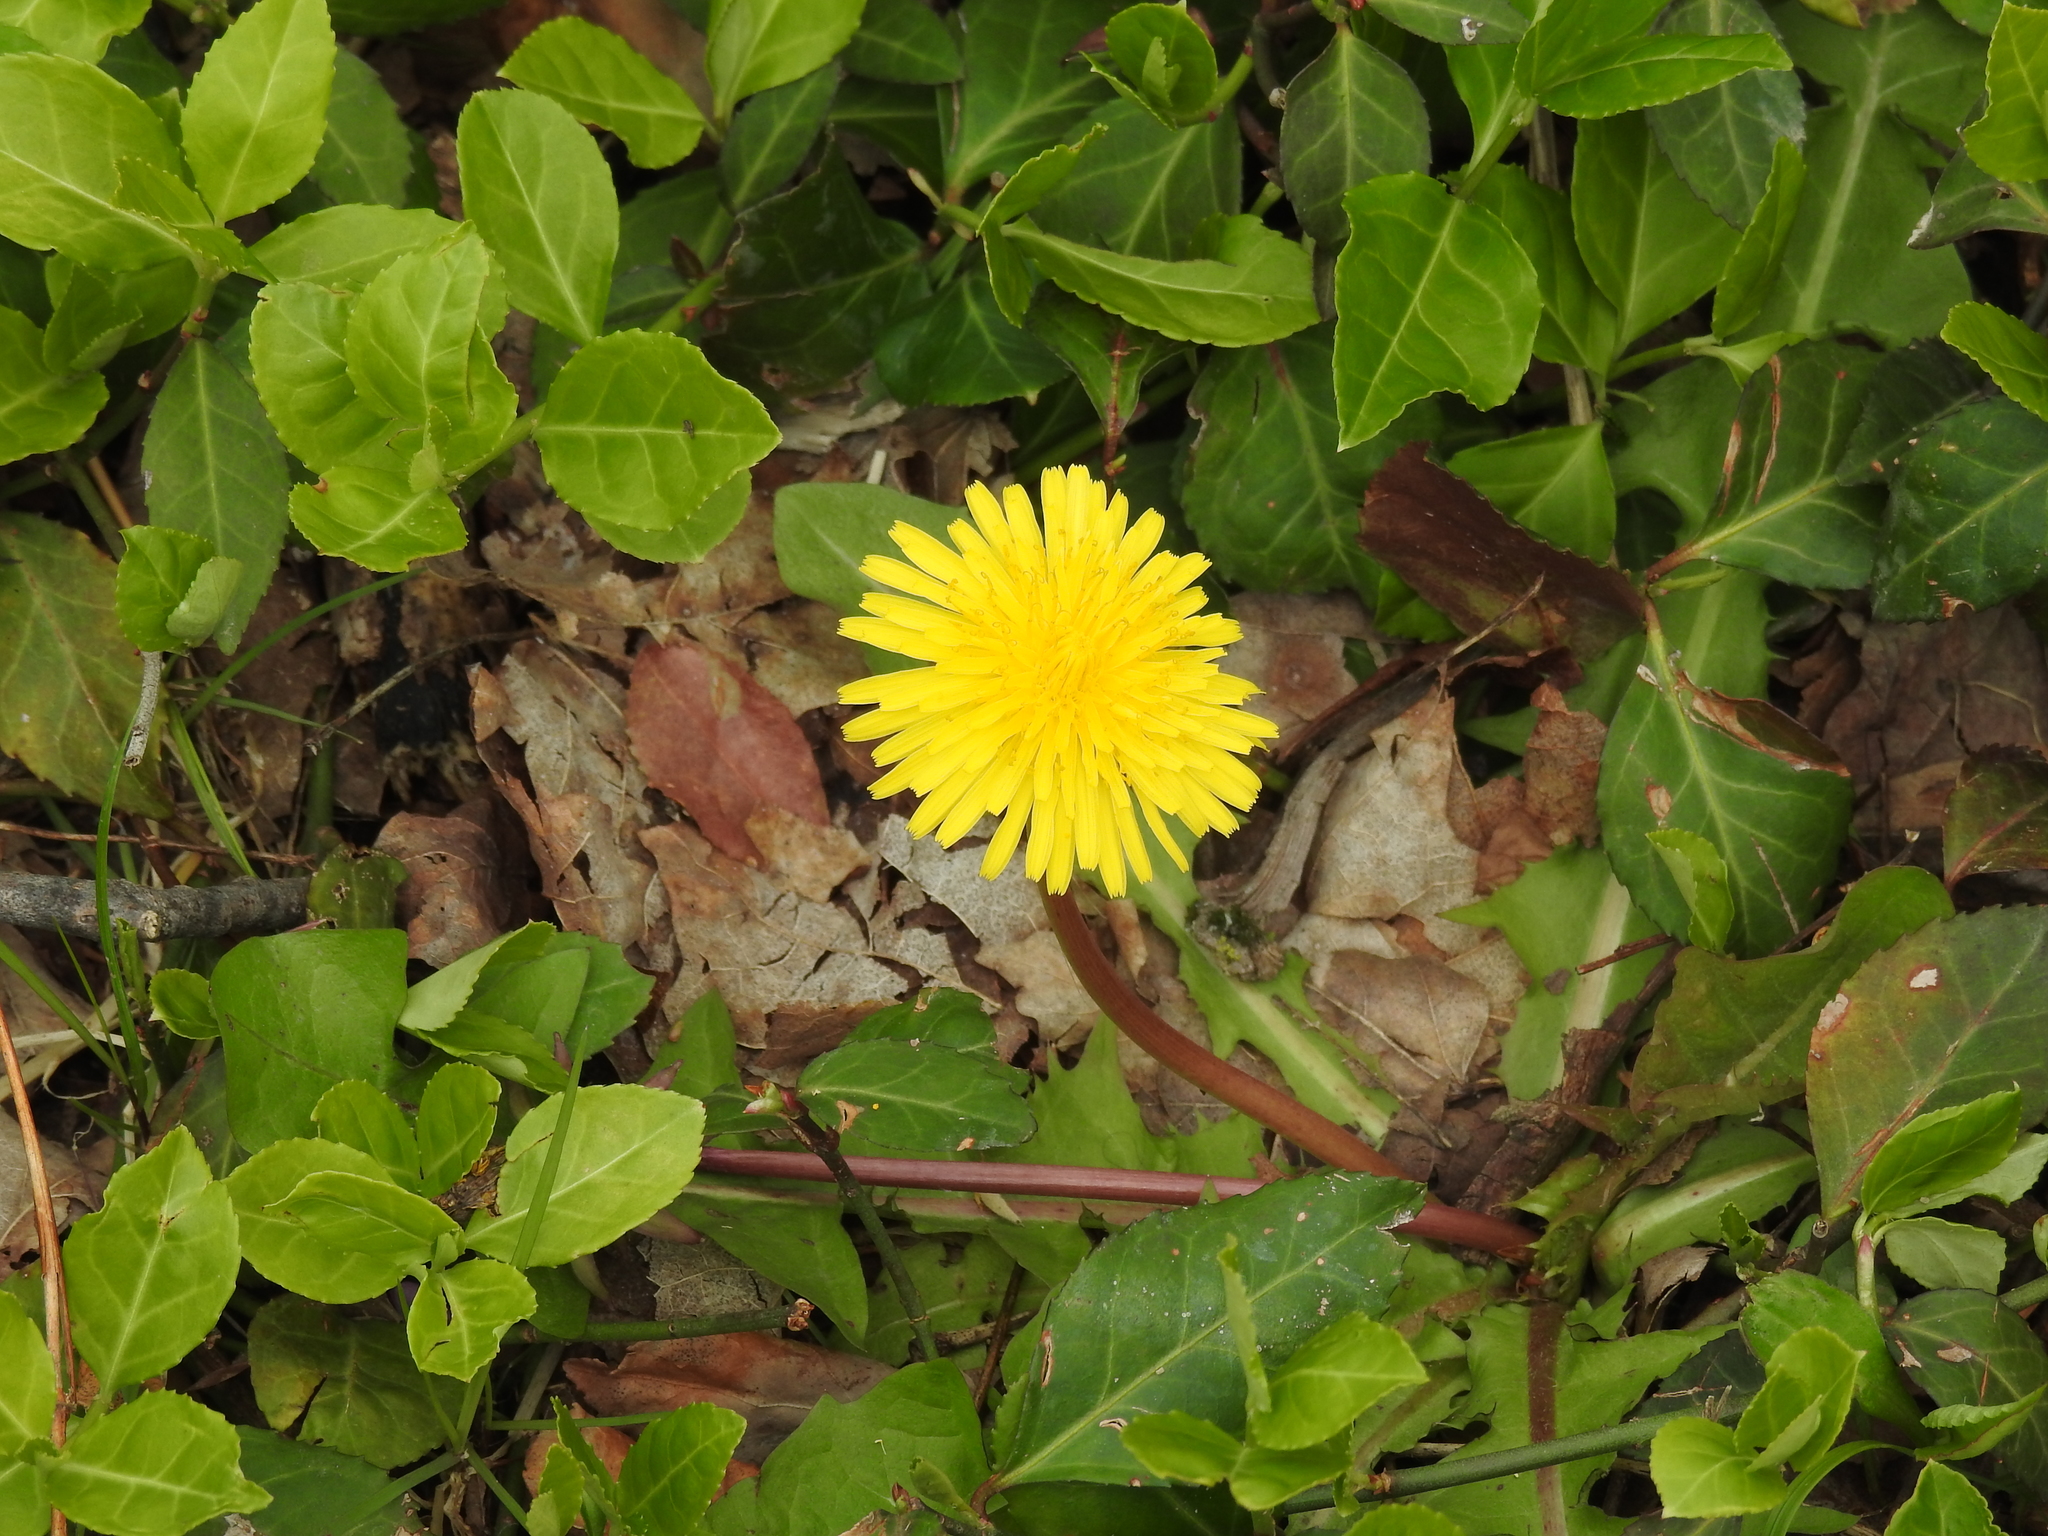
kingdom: Plantae
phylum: Tracheophyta
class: Magnoliopsida
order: Asterales
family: Asteraceae
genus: Taraxacum
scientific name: Taraxacum officinale
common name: Common dandelion
